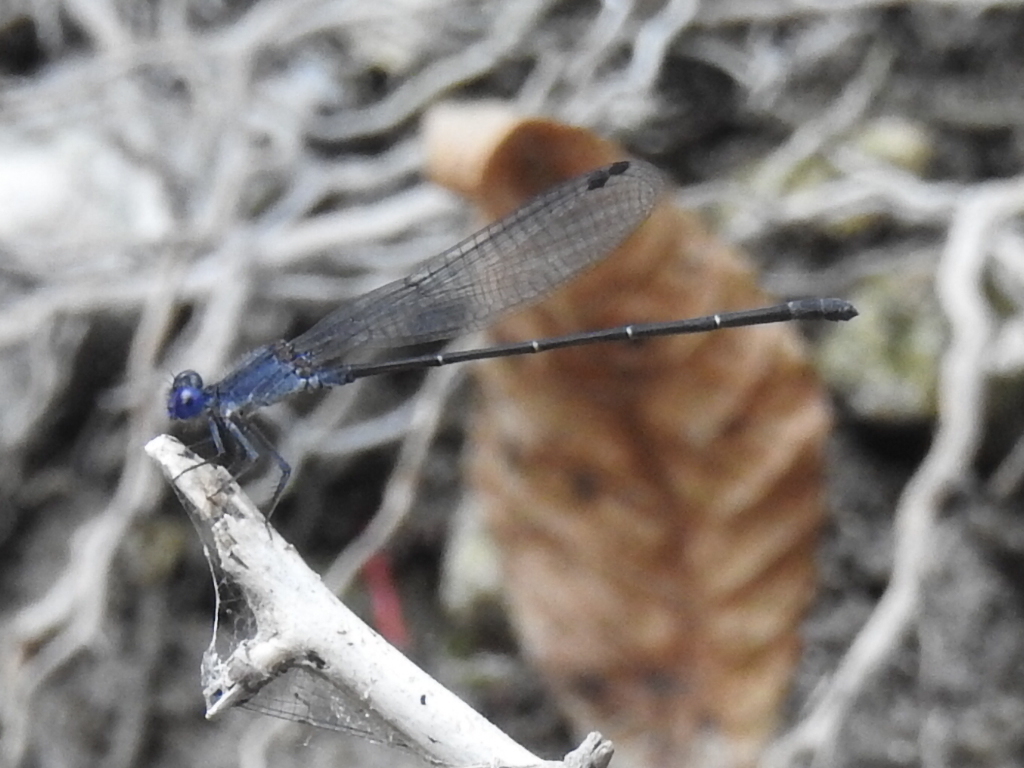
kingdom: Animalia
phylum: Arthropoda
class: Insecta
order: Odonata
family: Coenagrionidae
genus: Argia
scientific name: Argia translata
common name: Dusky dancer
